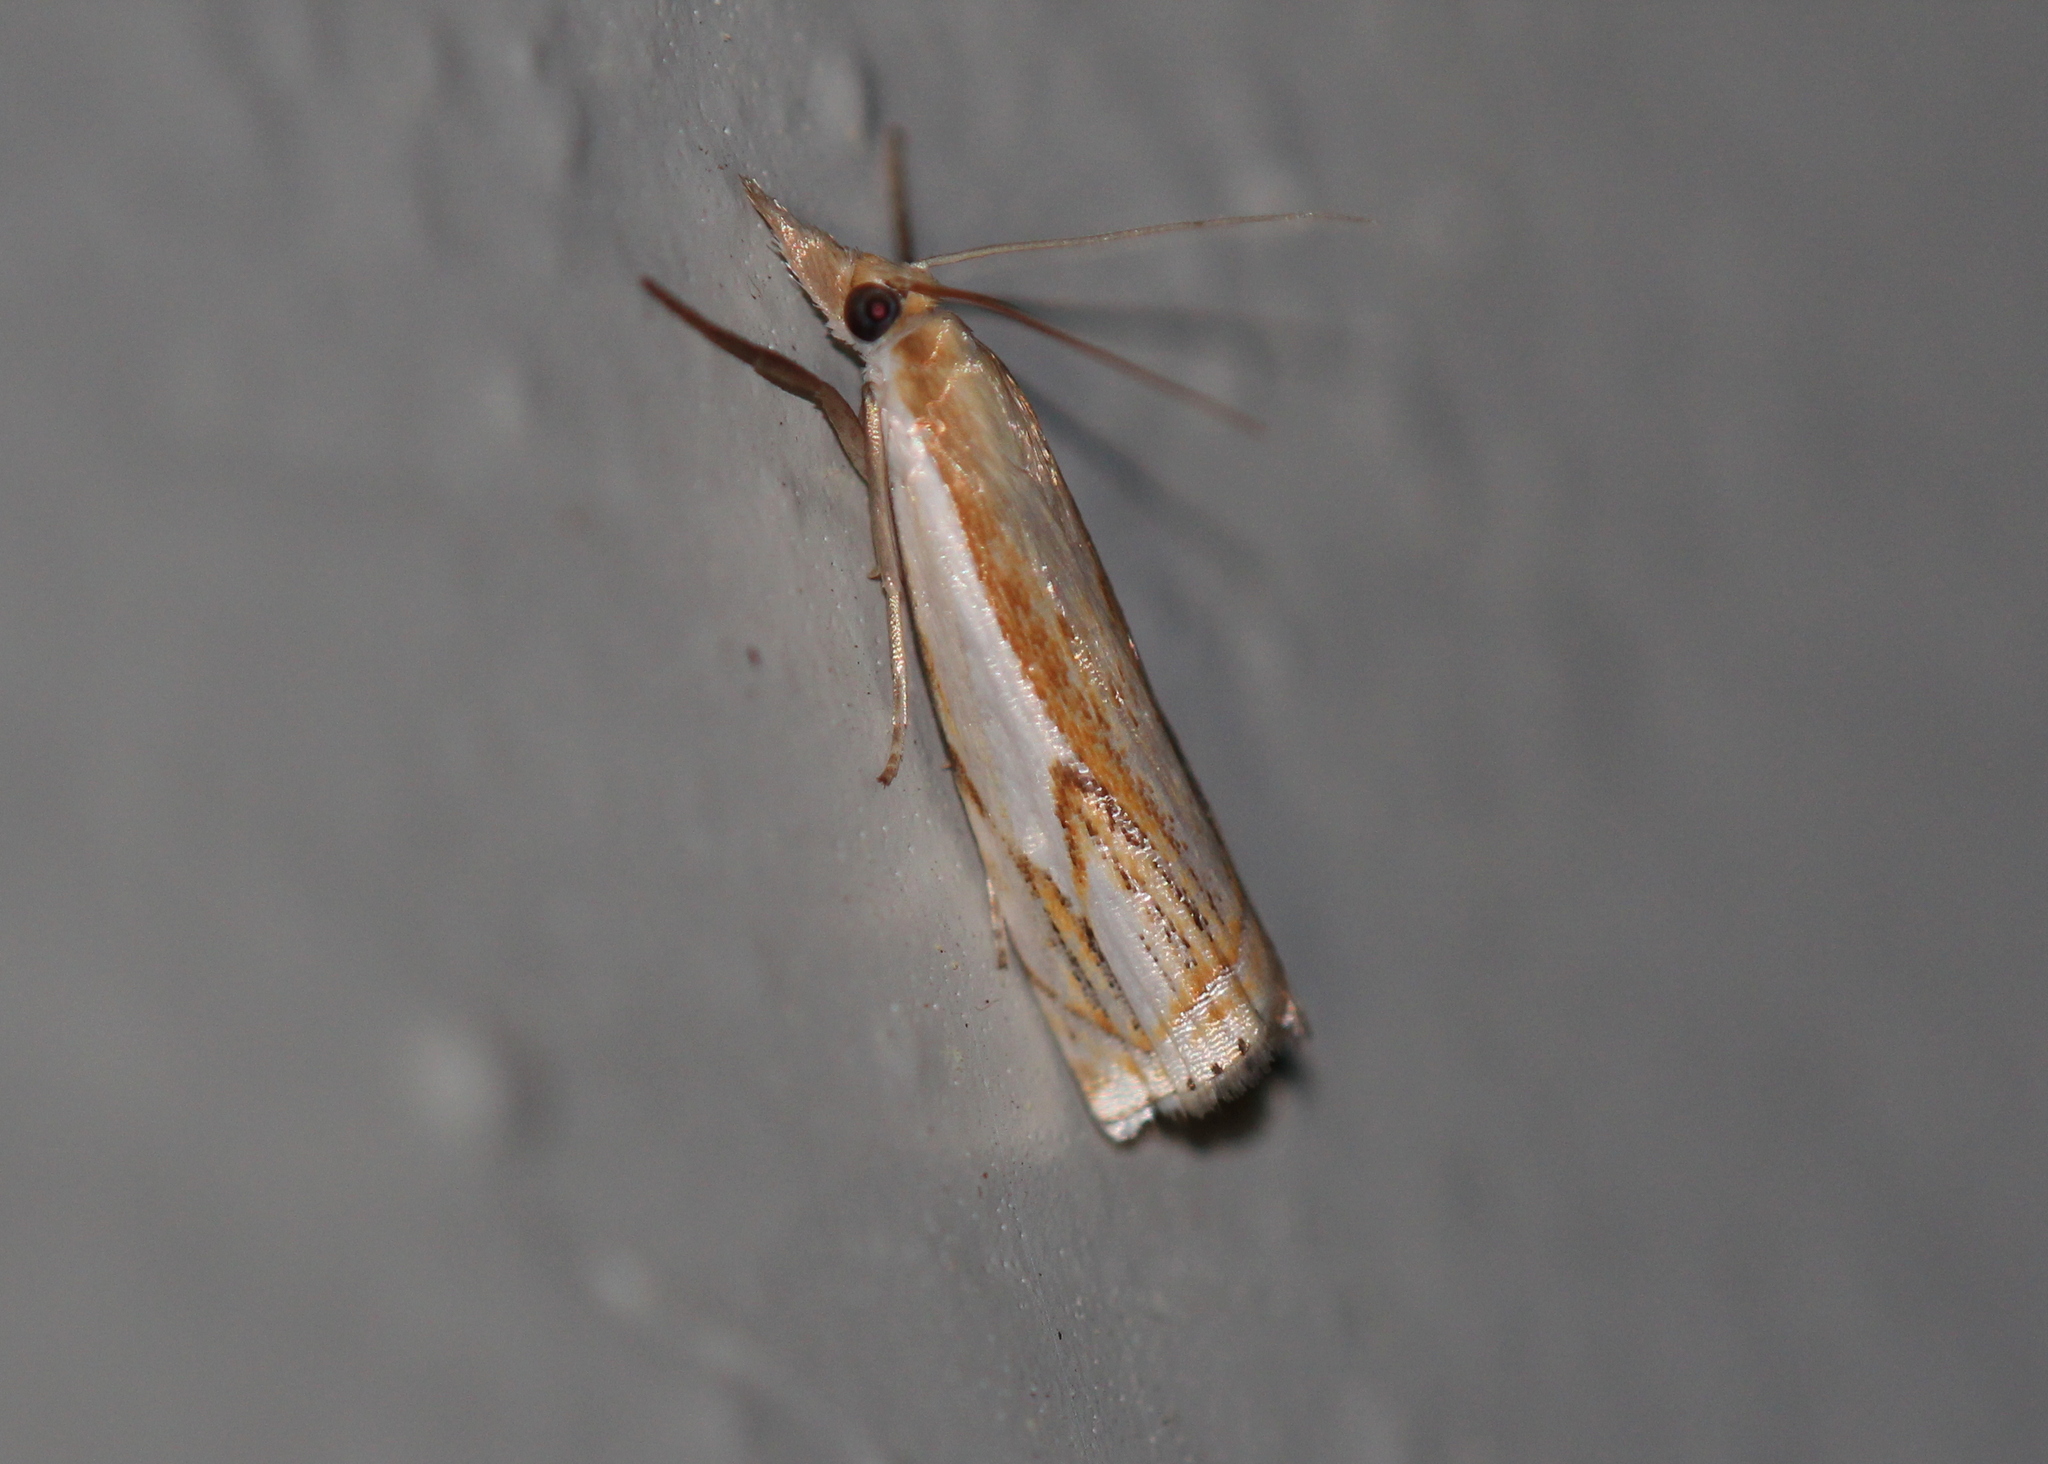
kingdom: Animalia
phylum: Arthropoda
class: Insecta
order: Lepidoptera
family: Crambidae
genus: Crambus
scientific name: Crambus agitatellus
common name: Double-banded grass-veneer
